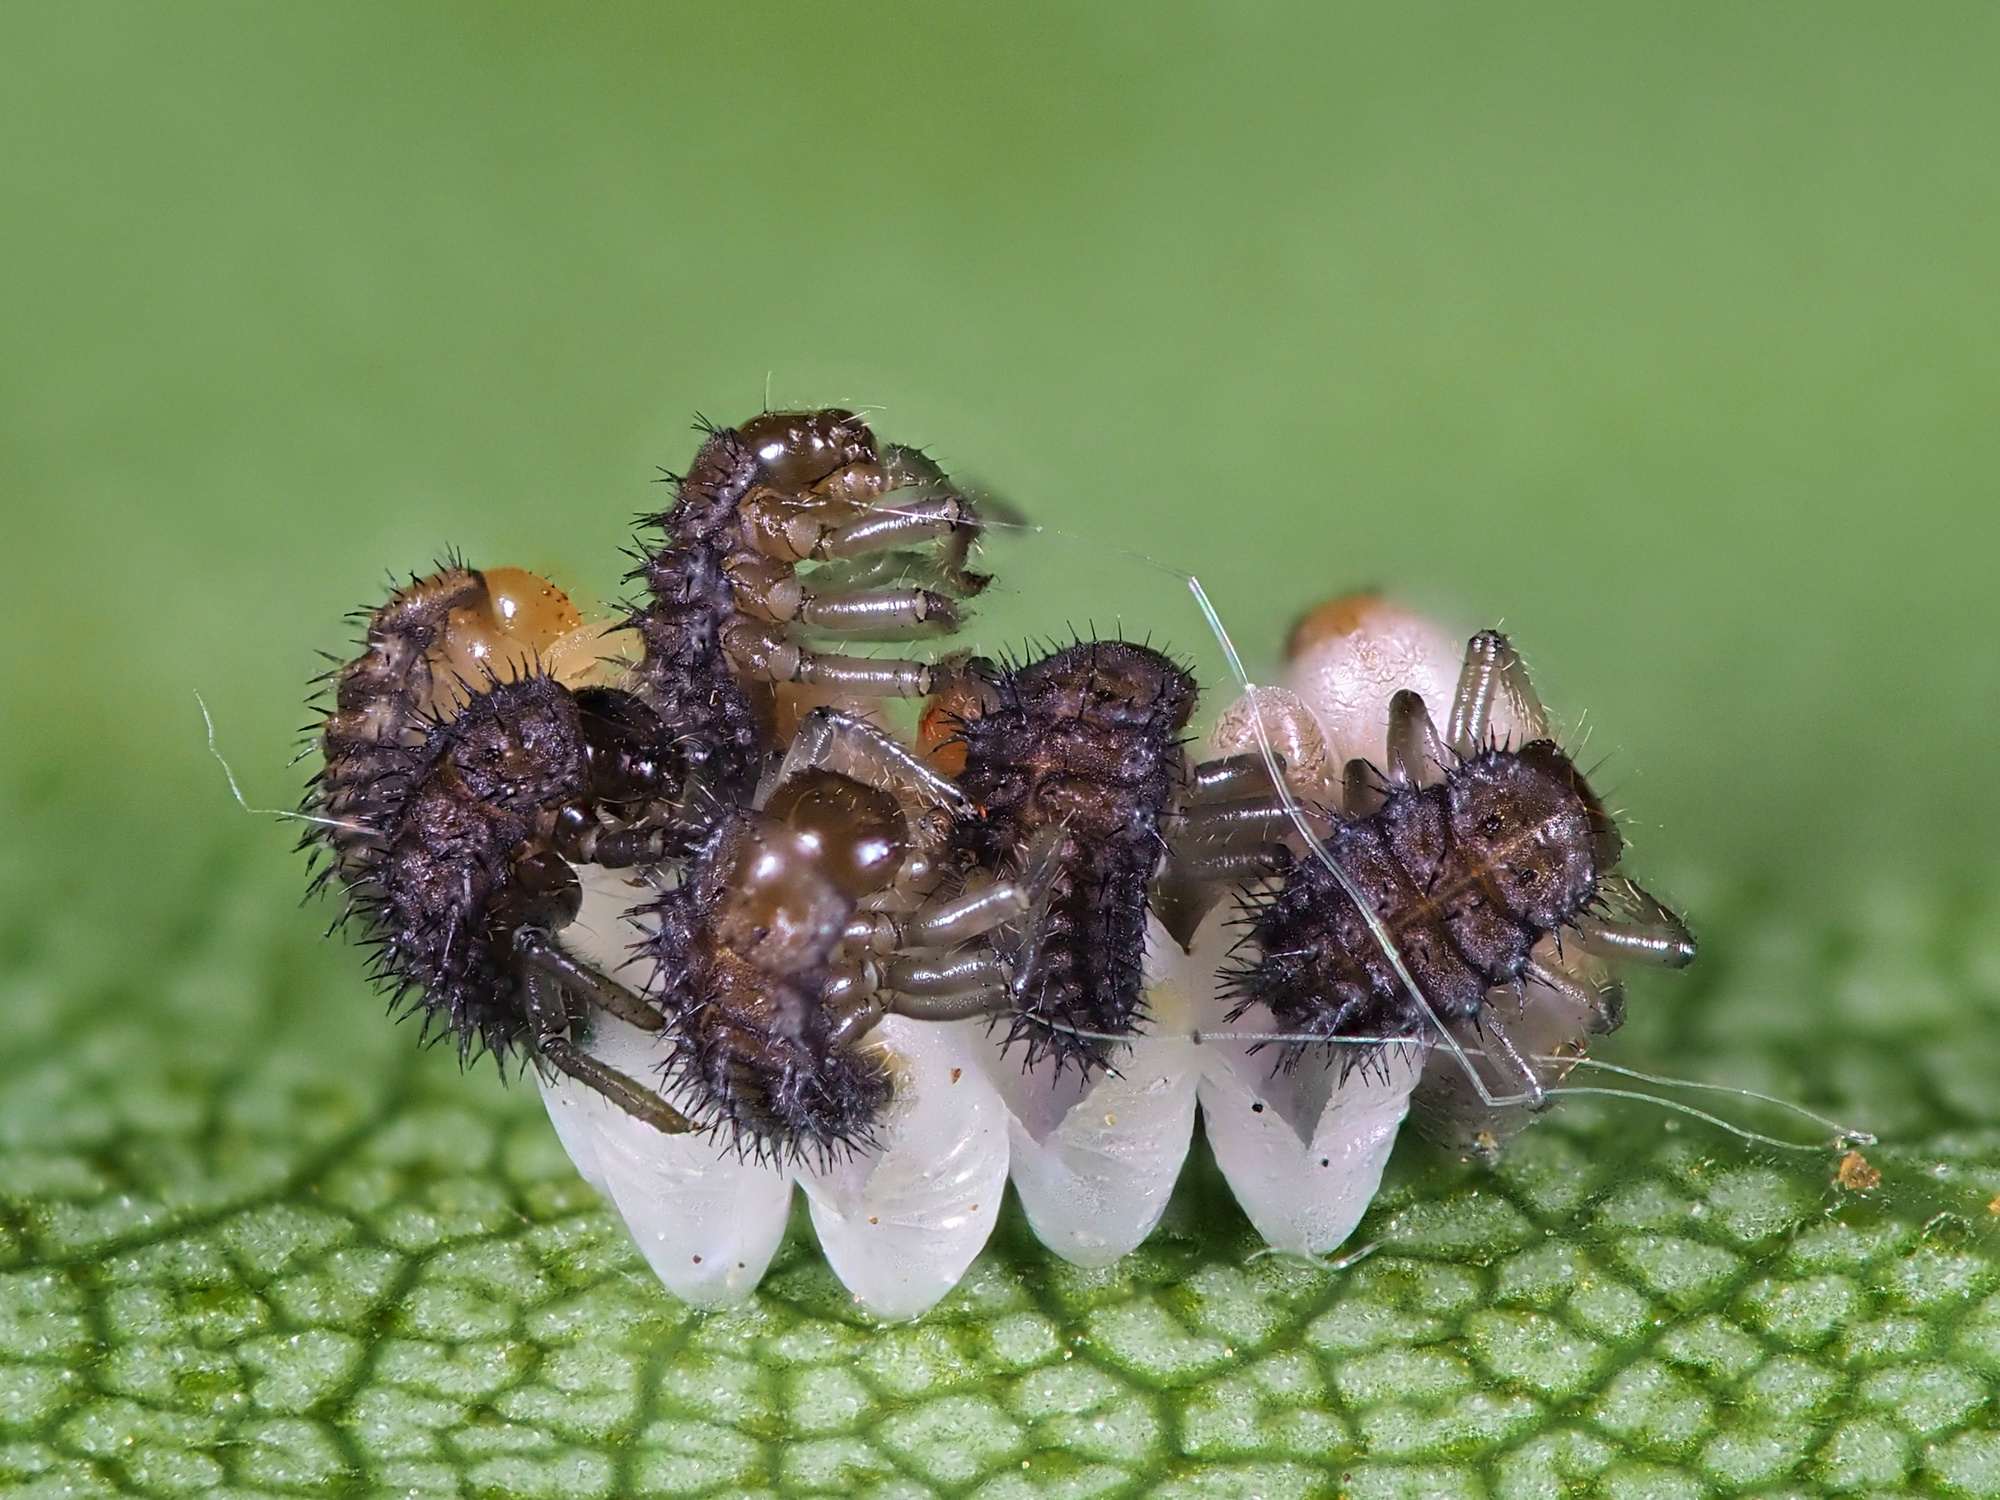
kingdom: Animalia
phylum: Arthropoda
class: Insecta
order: Coleoptera
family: Coccinellidae
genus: Harmonia
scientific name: Harmonia axyridis
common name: Harlequin ladybird
